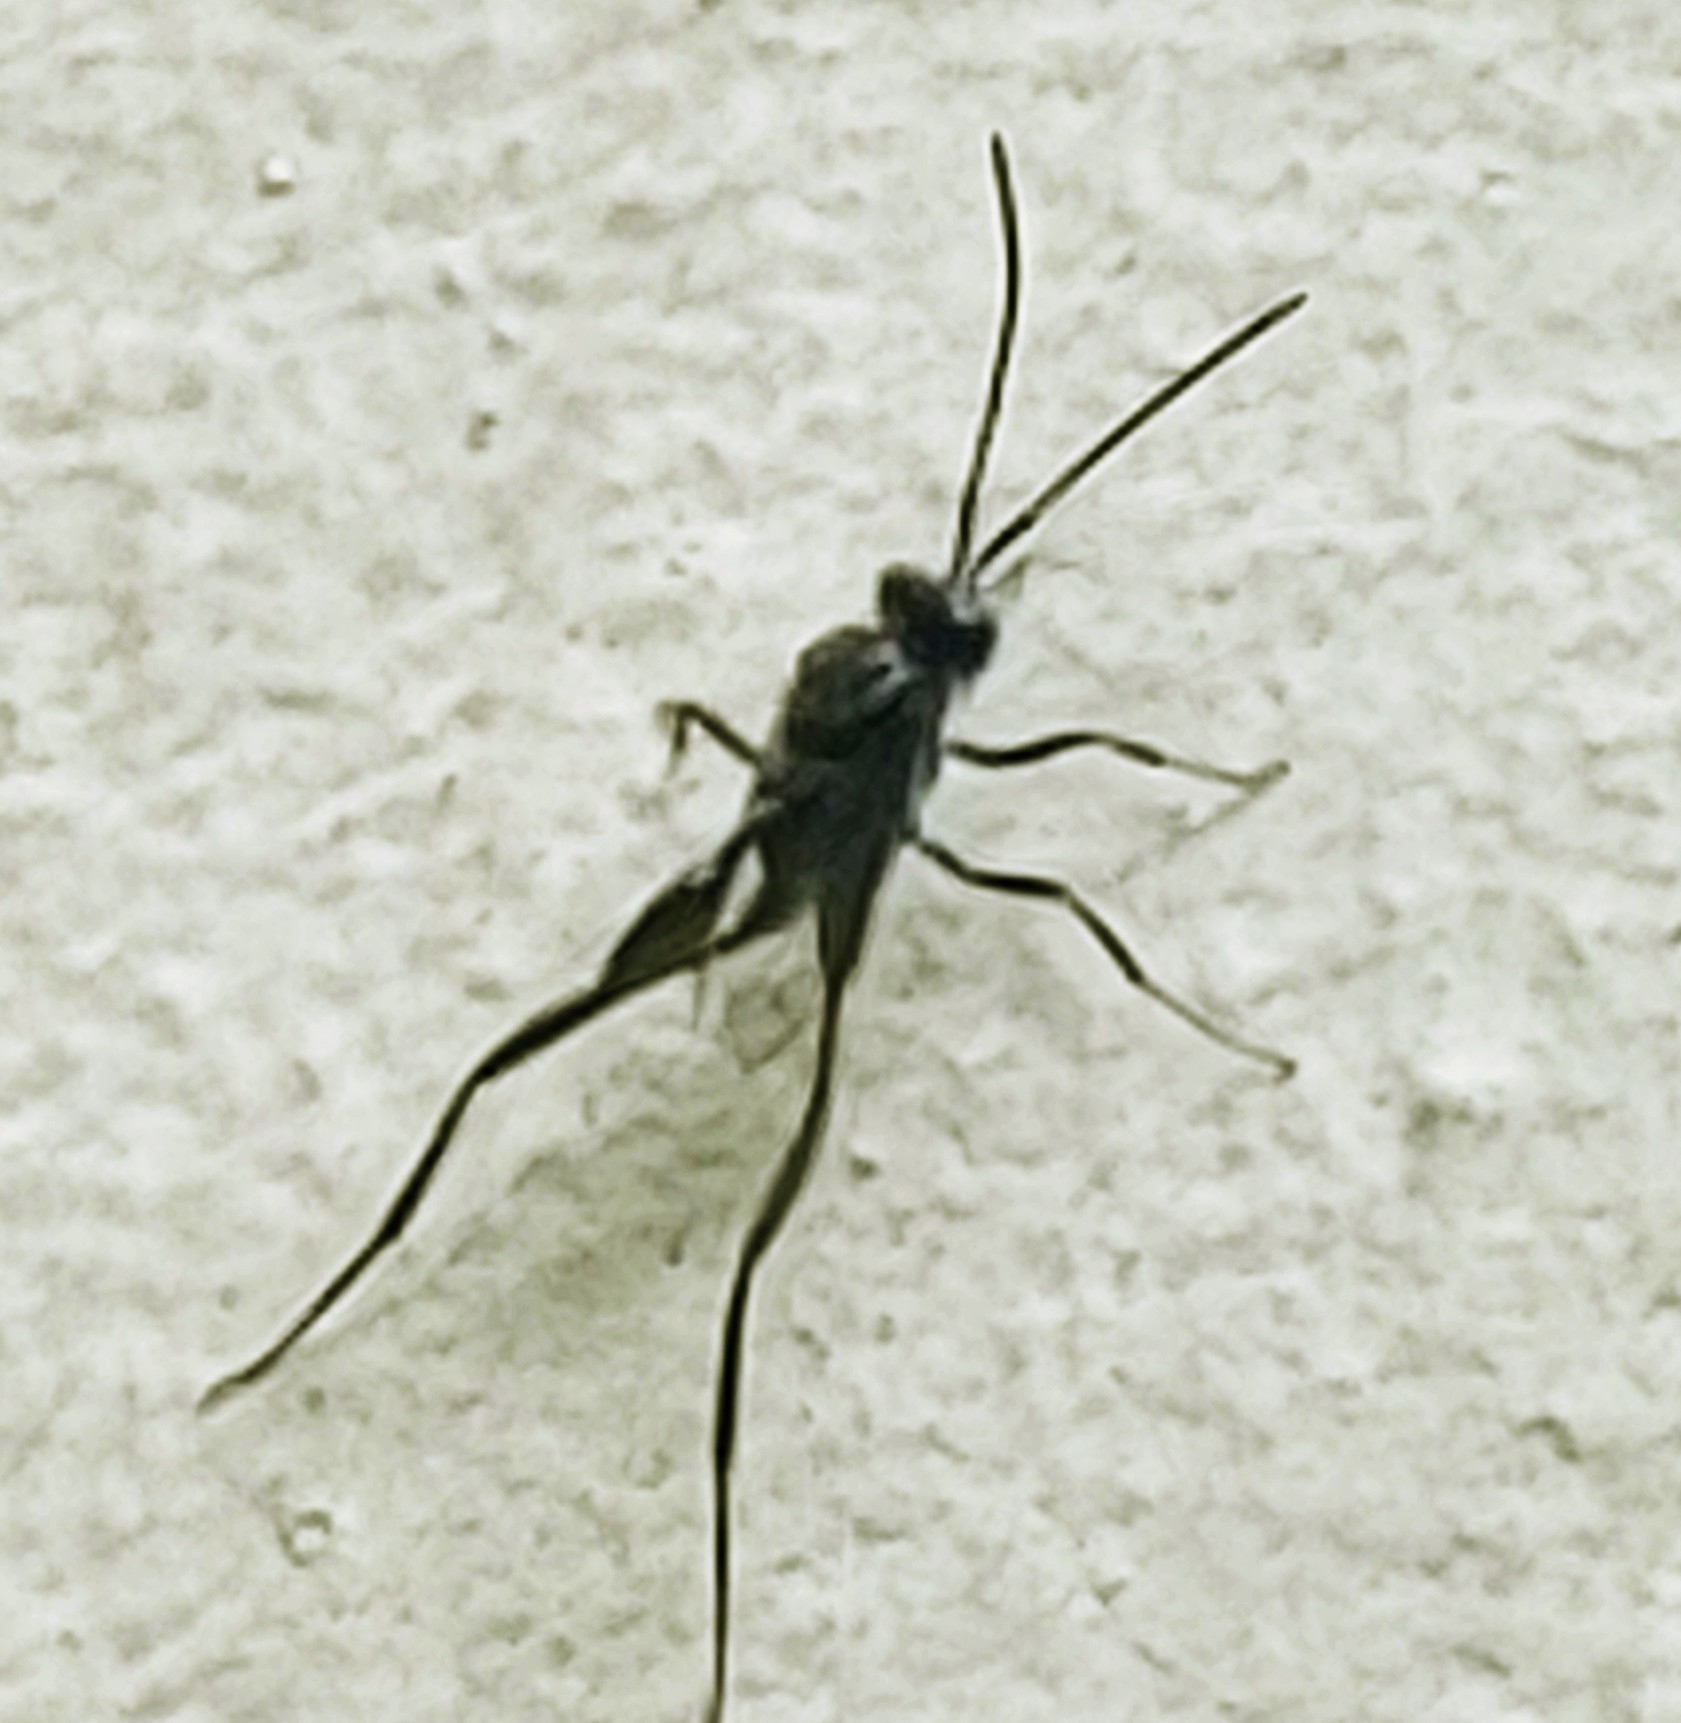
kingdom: Animalia
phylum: Arthropoda
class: Insecta
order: Hymenoptera
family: Evaniidae
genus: Evania
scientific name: Evania appendigaster
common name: Ensign wasp
